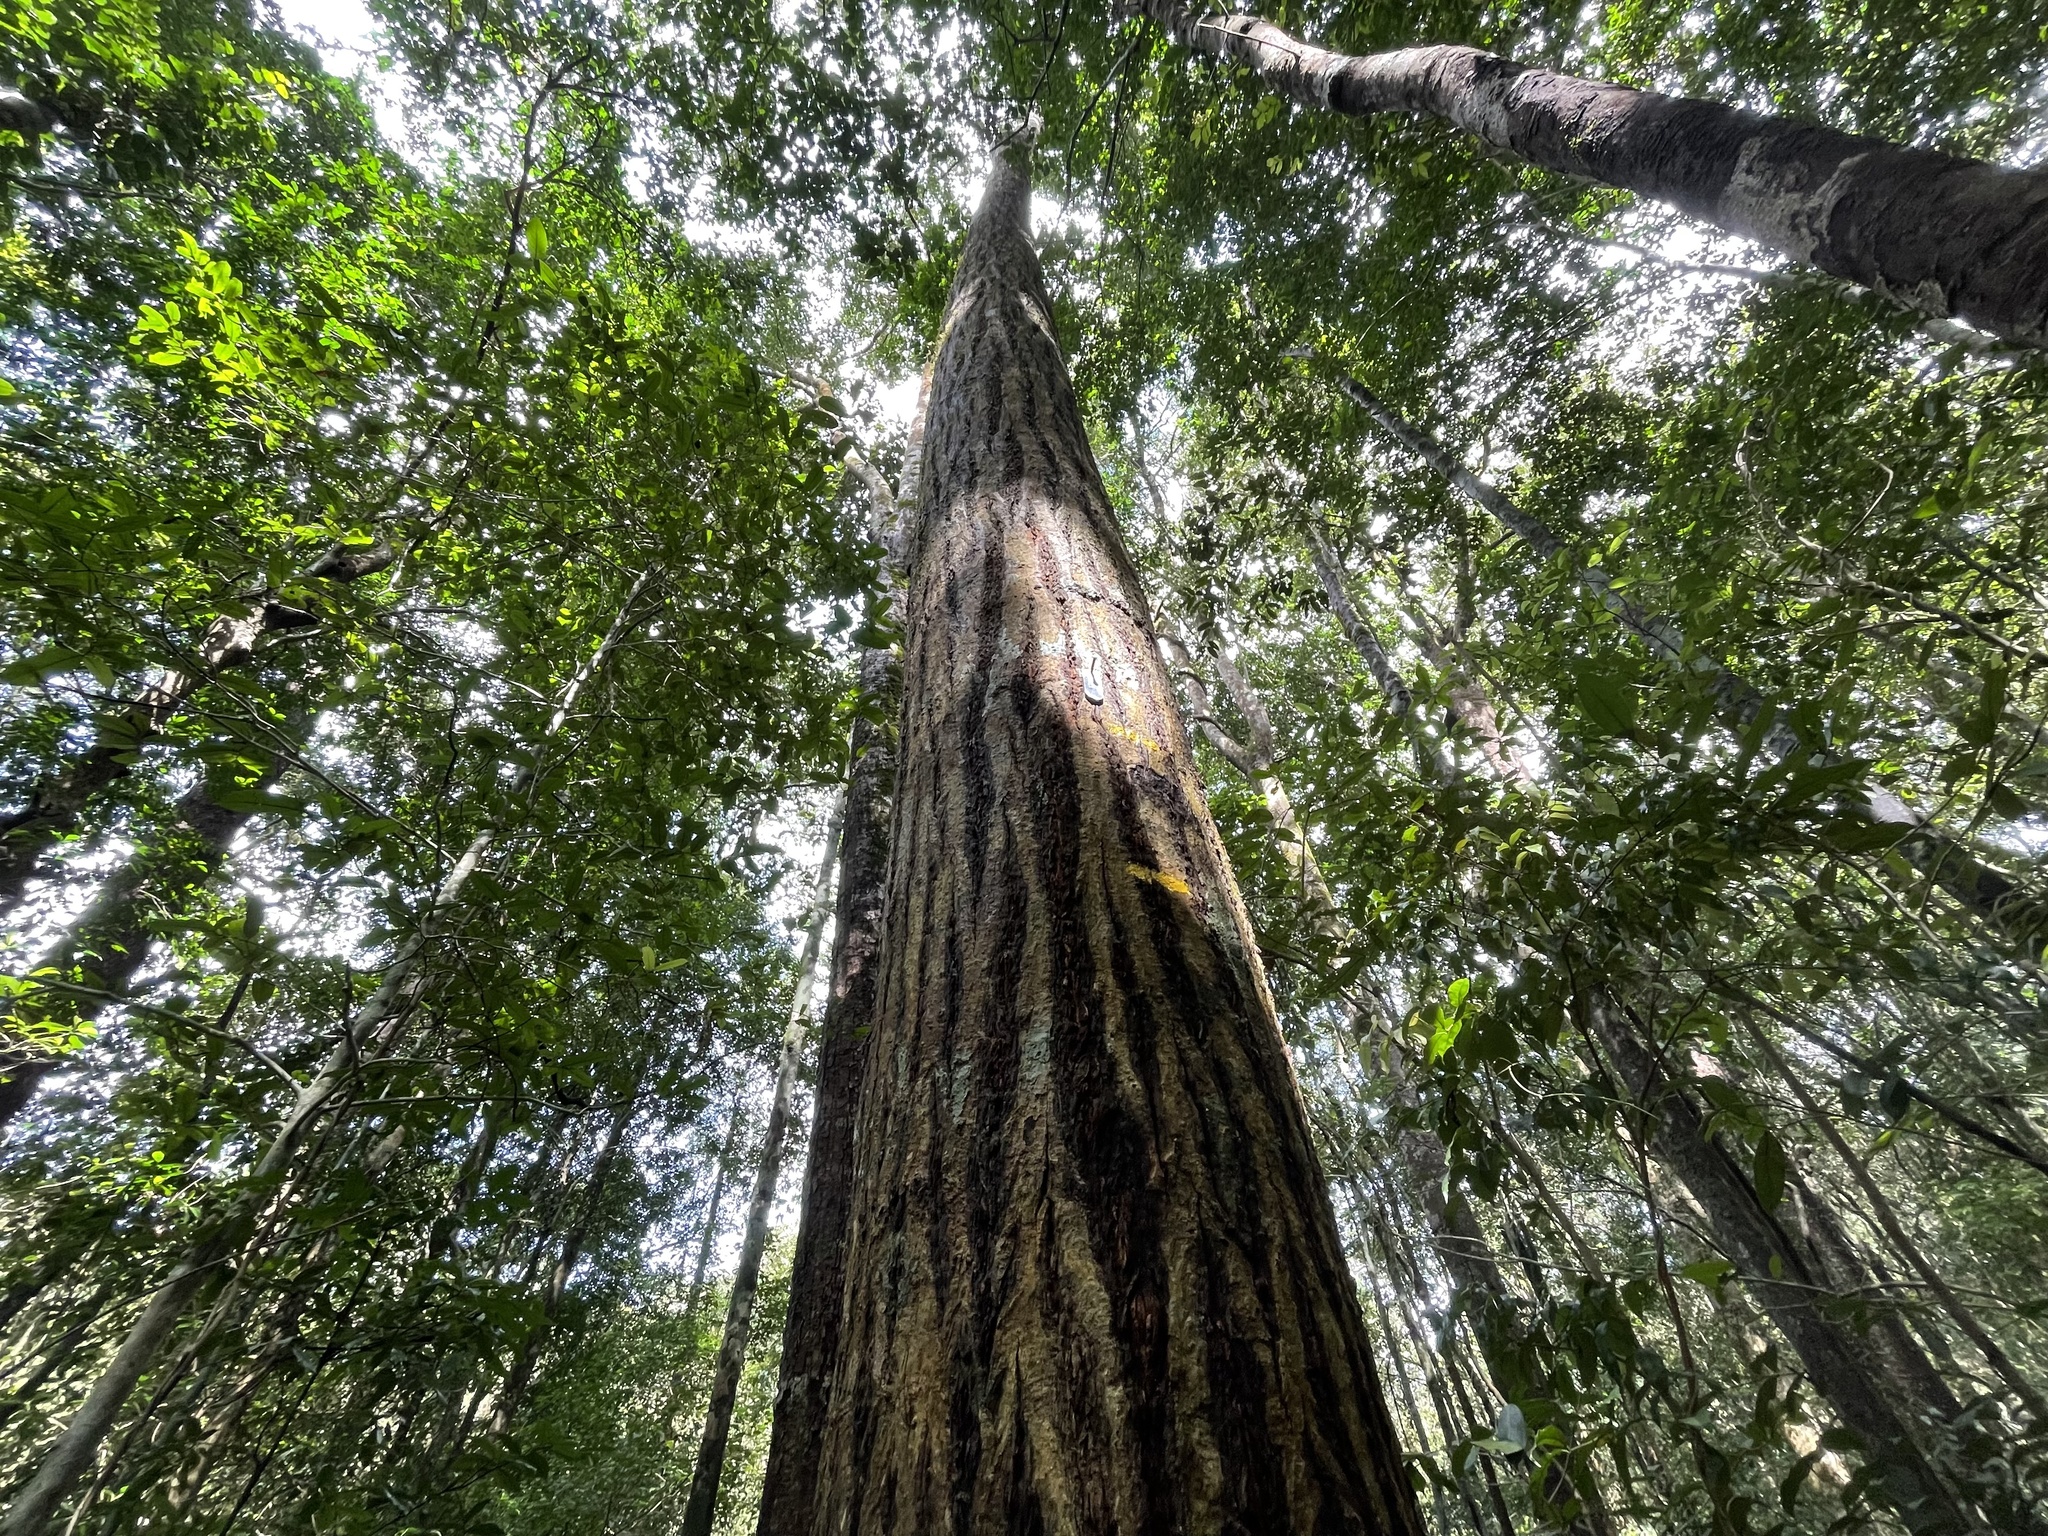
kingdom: Plantae
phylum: Tracheophyta
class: Magnoliopsida
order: Malpighiales
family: Calophyllaceae
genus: Calophyllum
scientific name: Calophyllum polyanthum
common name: Poonspar
